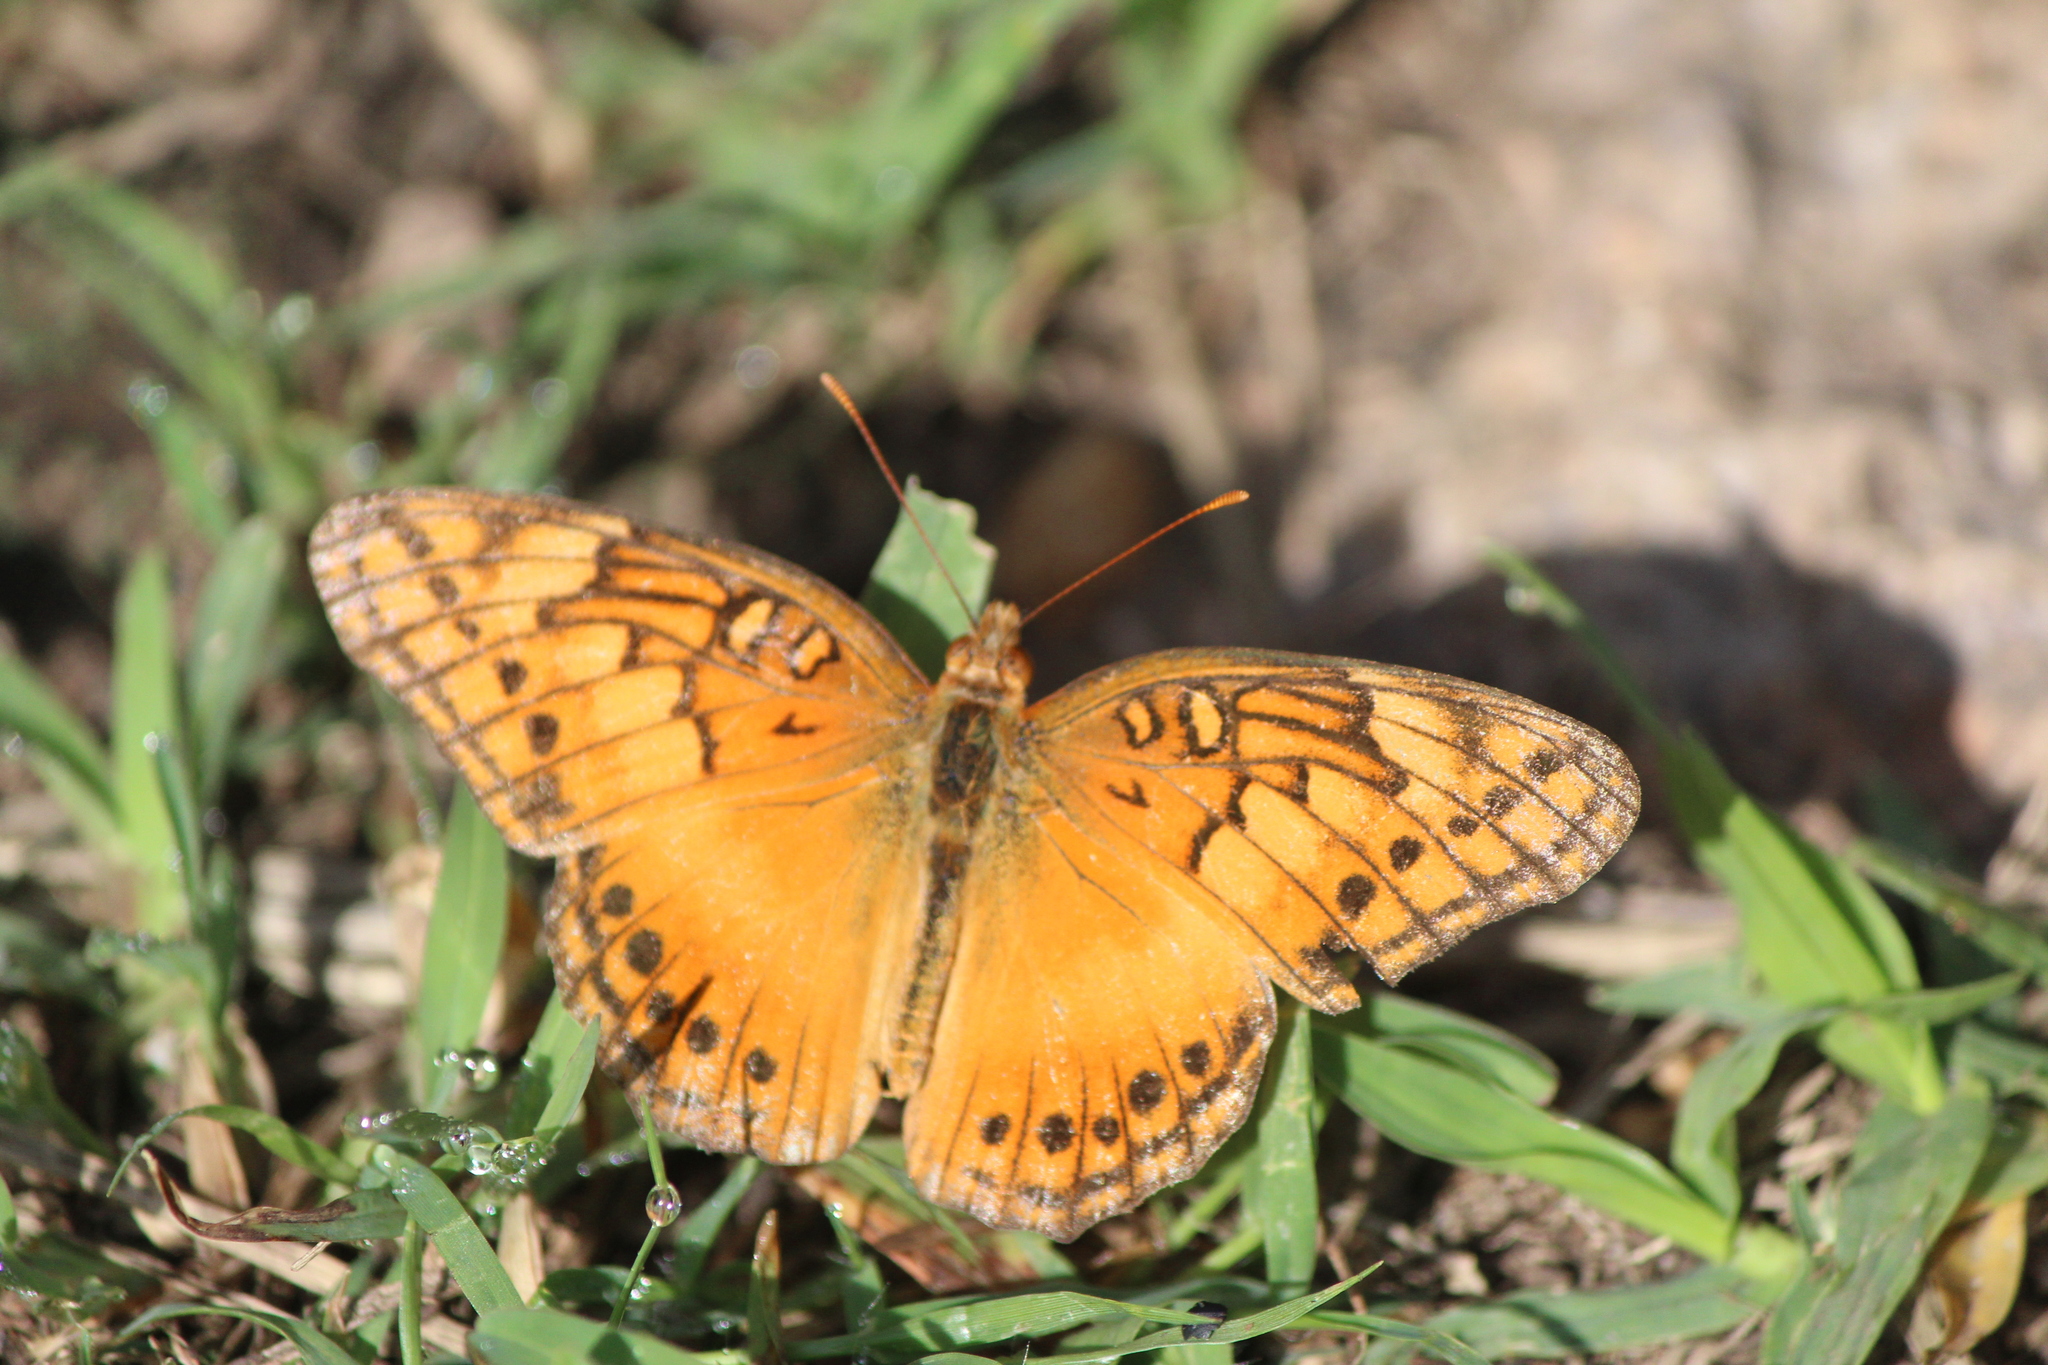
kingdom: Animalia
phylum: Arthropoda
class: Insecta
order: Lepidoptera
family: Nymphalidae
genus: Euptoieta
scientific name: Euptoieta hegesia
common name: Mexican fritillary
